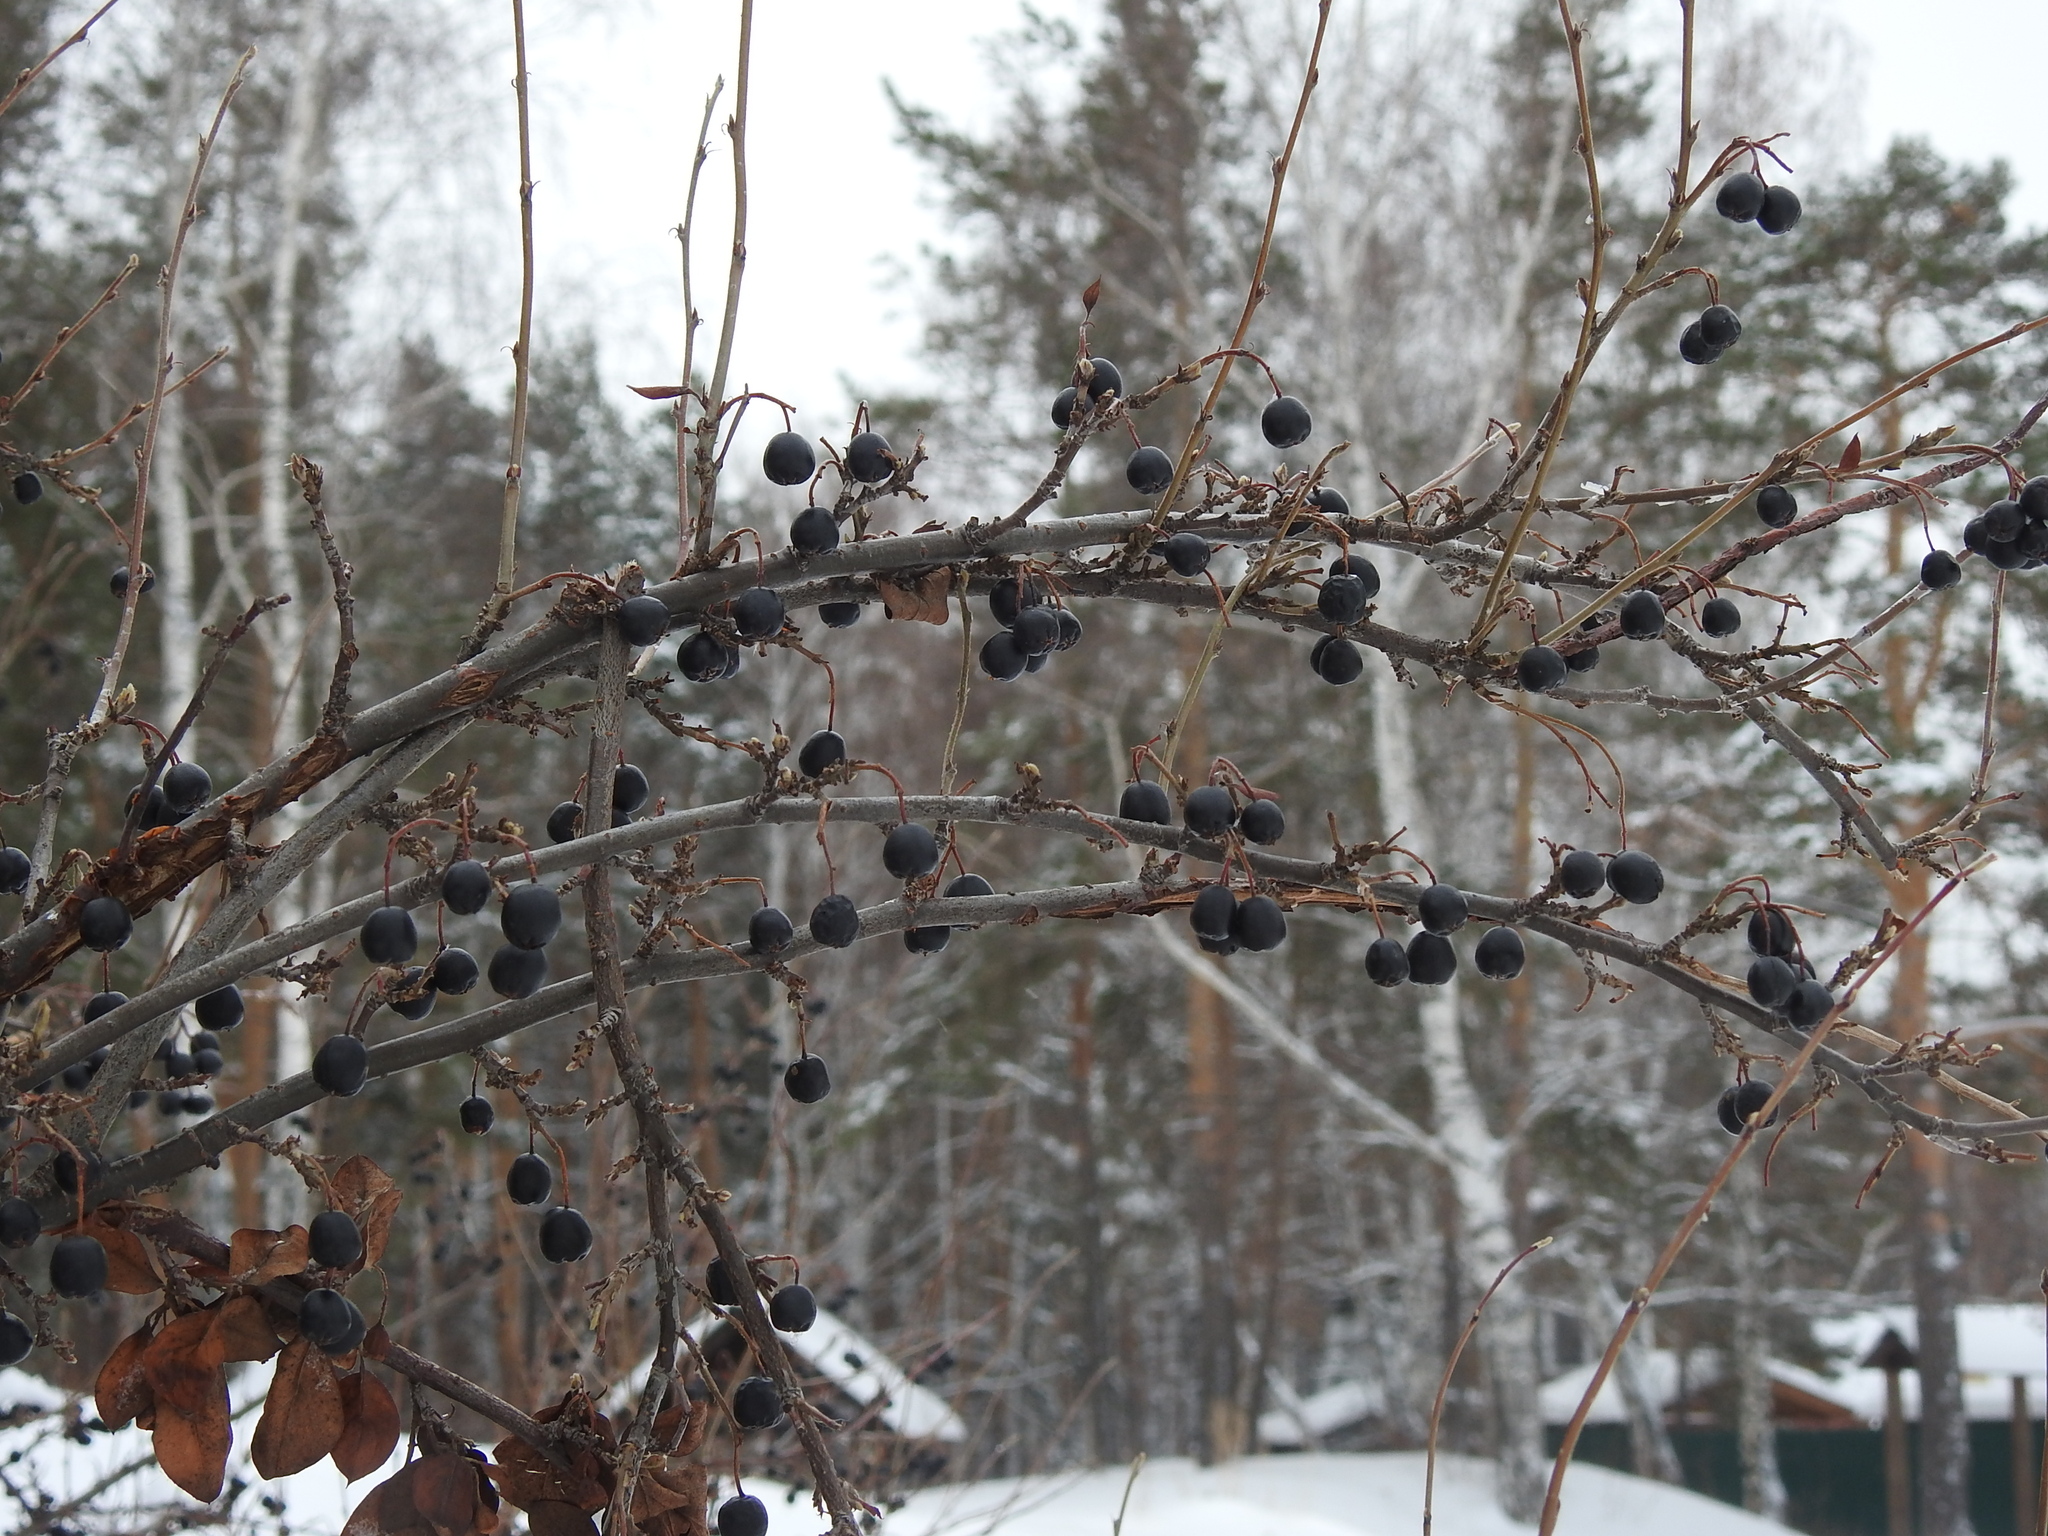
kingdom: Plantae
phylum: Tracheophyta
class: Magnoliopsida
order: Rosales
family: Rosaceae
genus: Cotoneaster
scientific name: Cotoneaster acutifolius
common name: Peking cotoneaster
